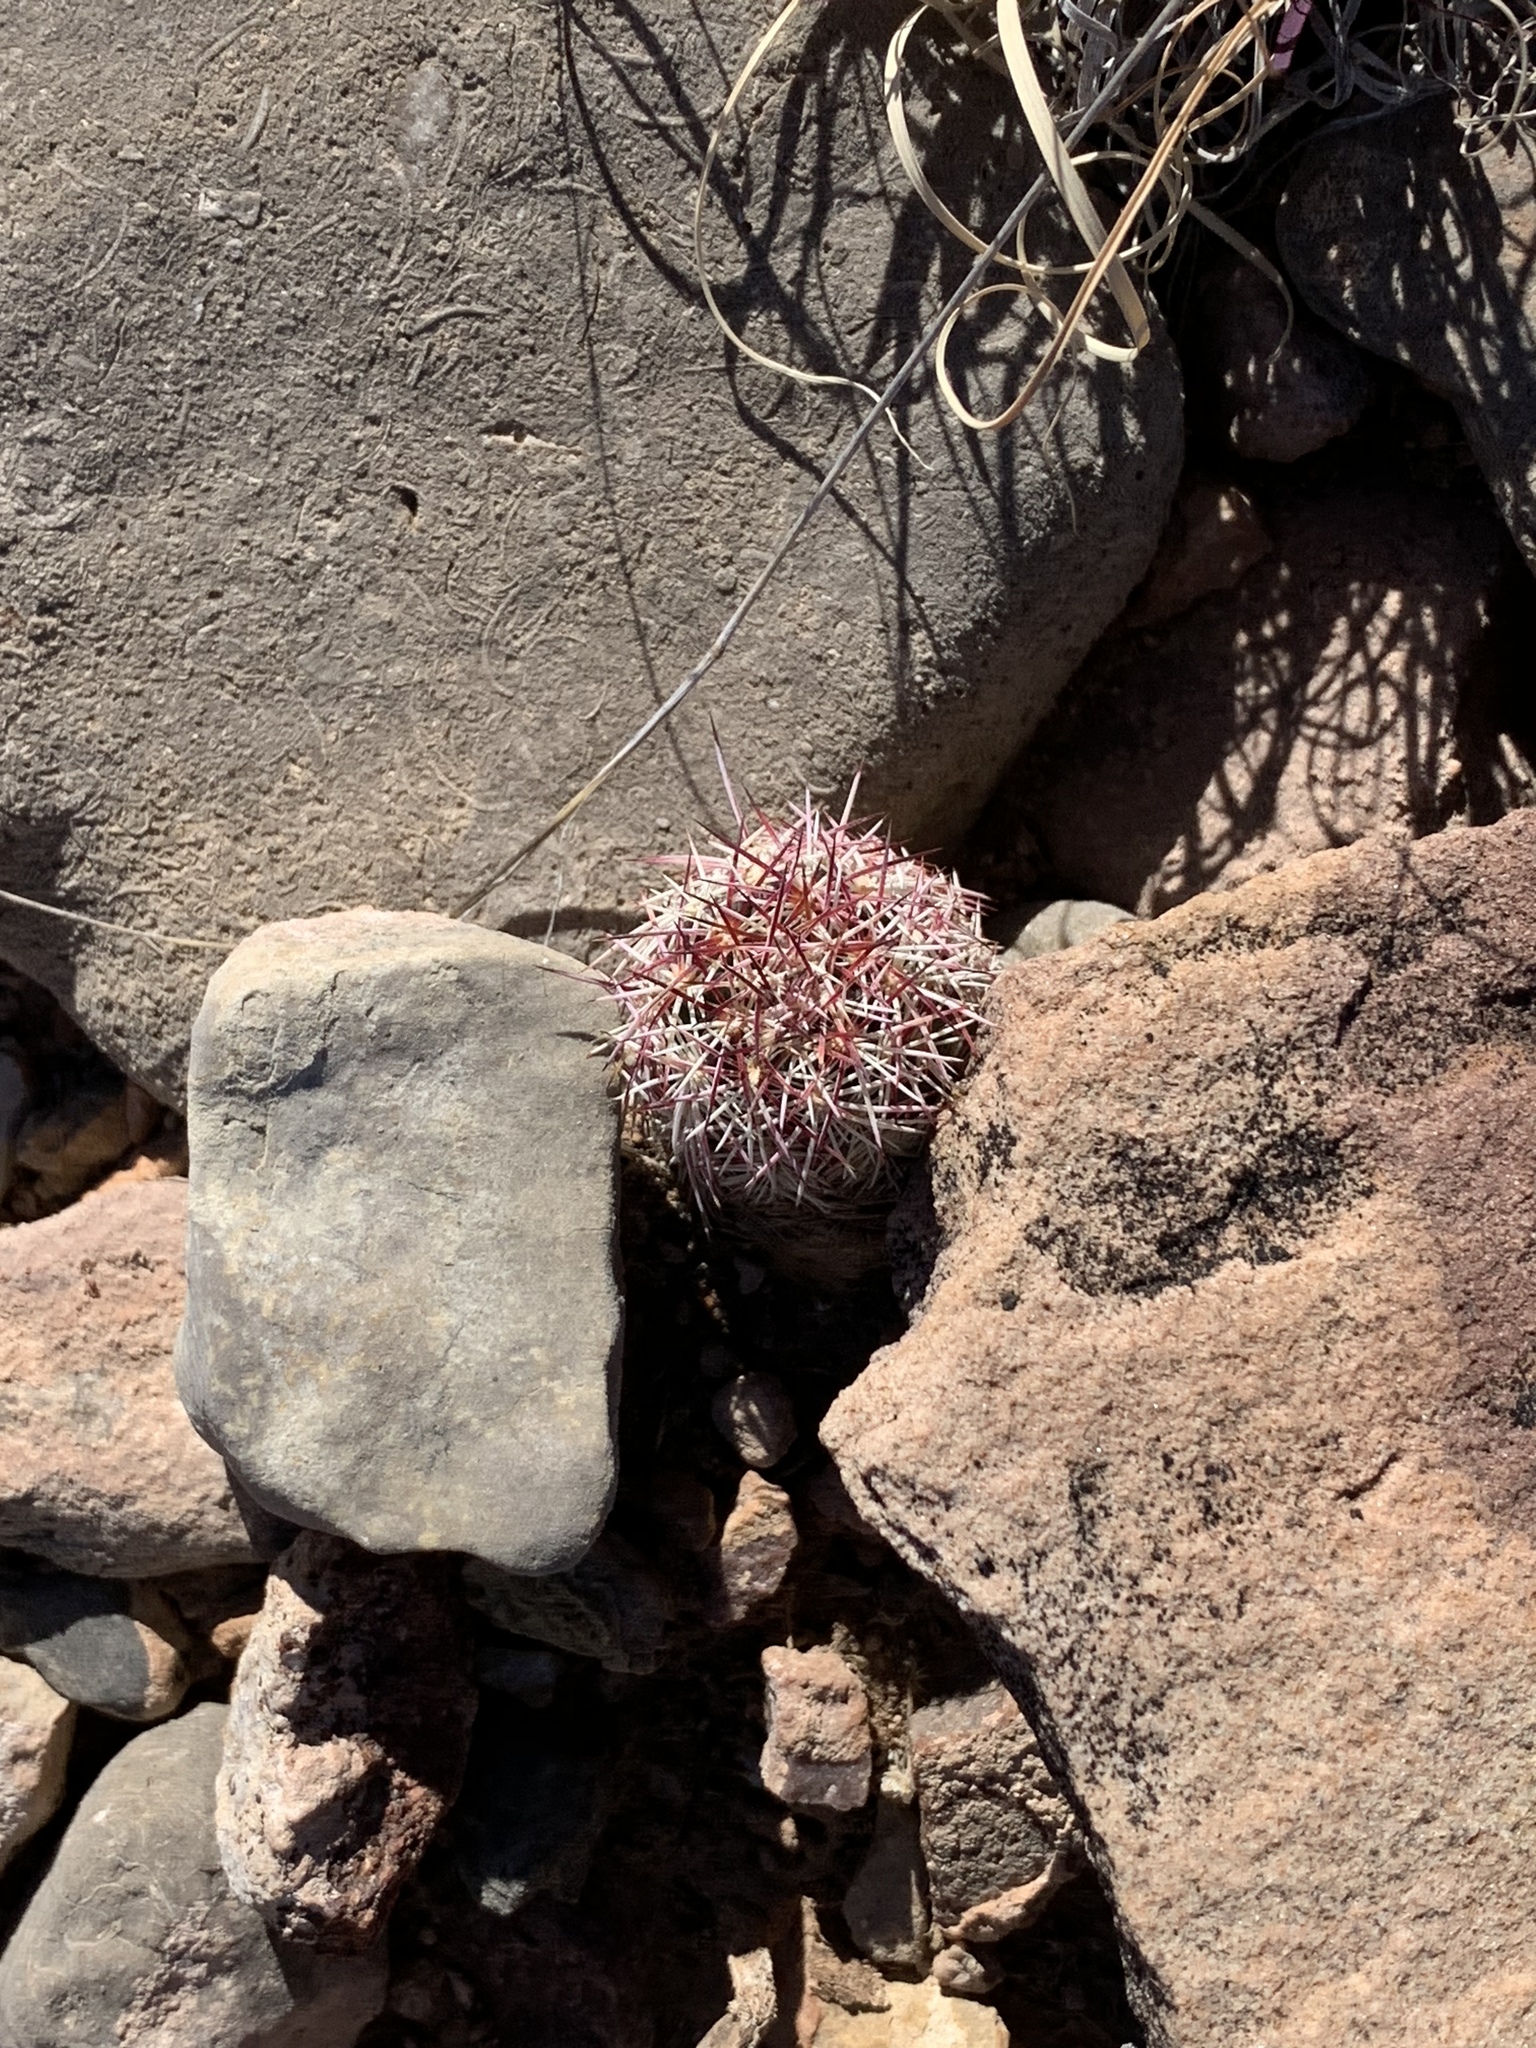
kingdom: Plantae
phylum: Tracheophyta
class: Magnoliopsida
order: Caryophyllales
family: Cactaceae
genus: Echinocereus
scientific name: Echinocereus viridiflorus
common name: Nylon hedgehog cactus
